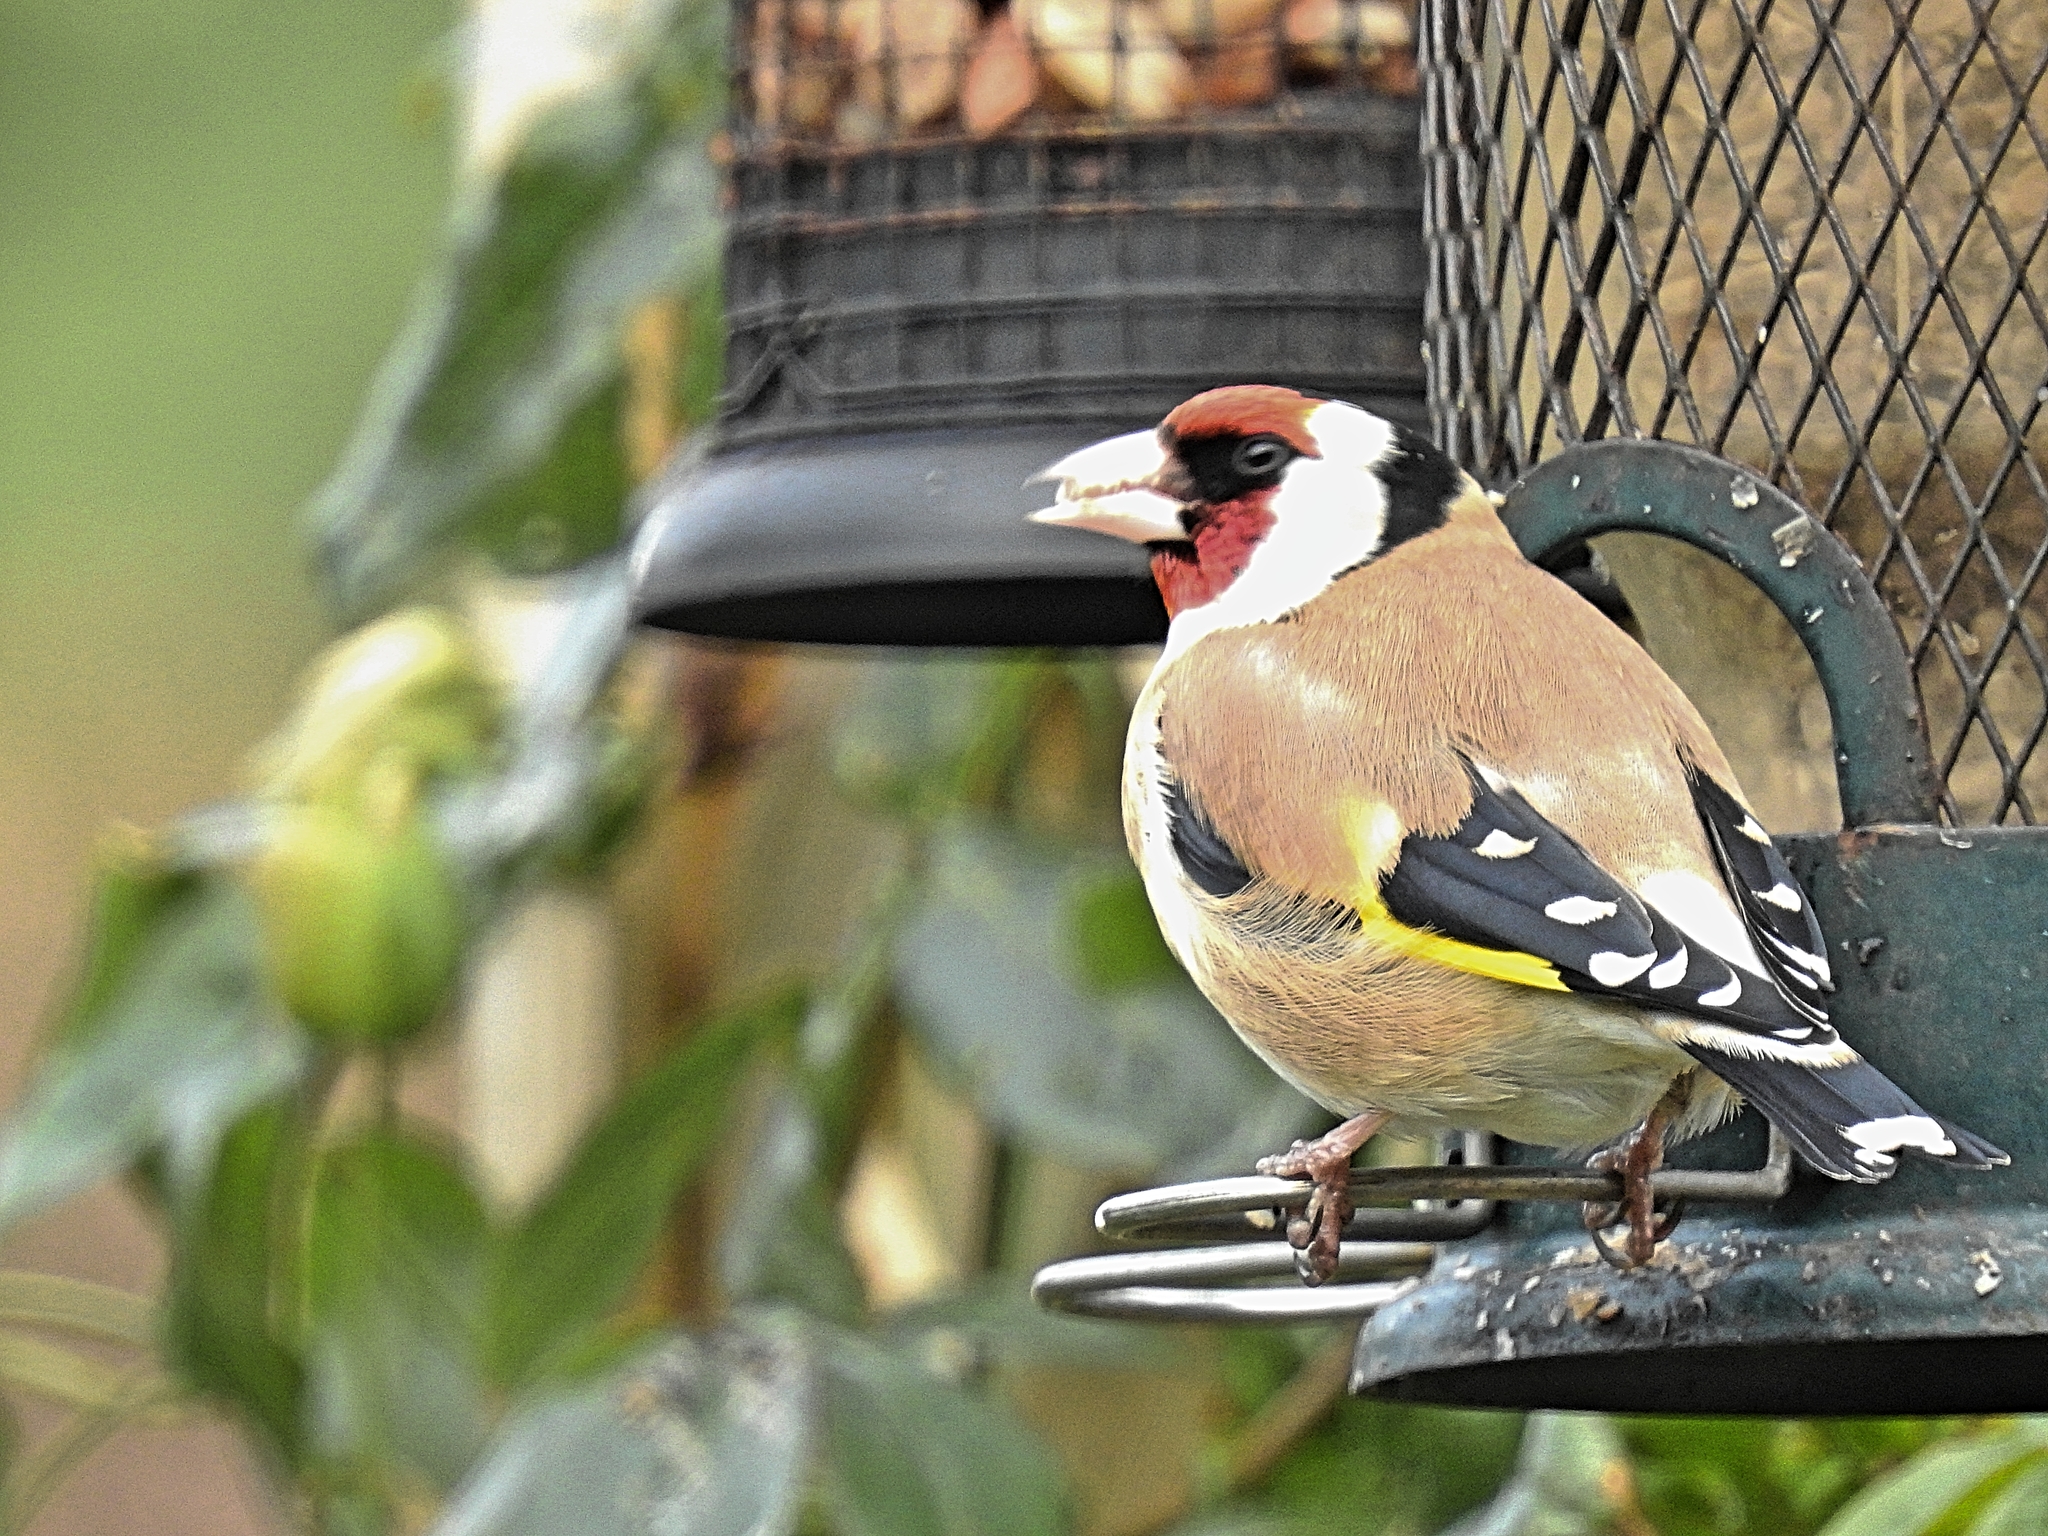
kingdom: Animalia
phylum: Chordata
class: Aves
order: Passeriformes
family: Fringillidae
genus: Carduelis
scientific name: Carduelis carduelis
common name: European goldfinch
